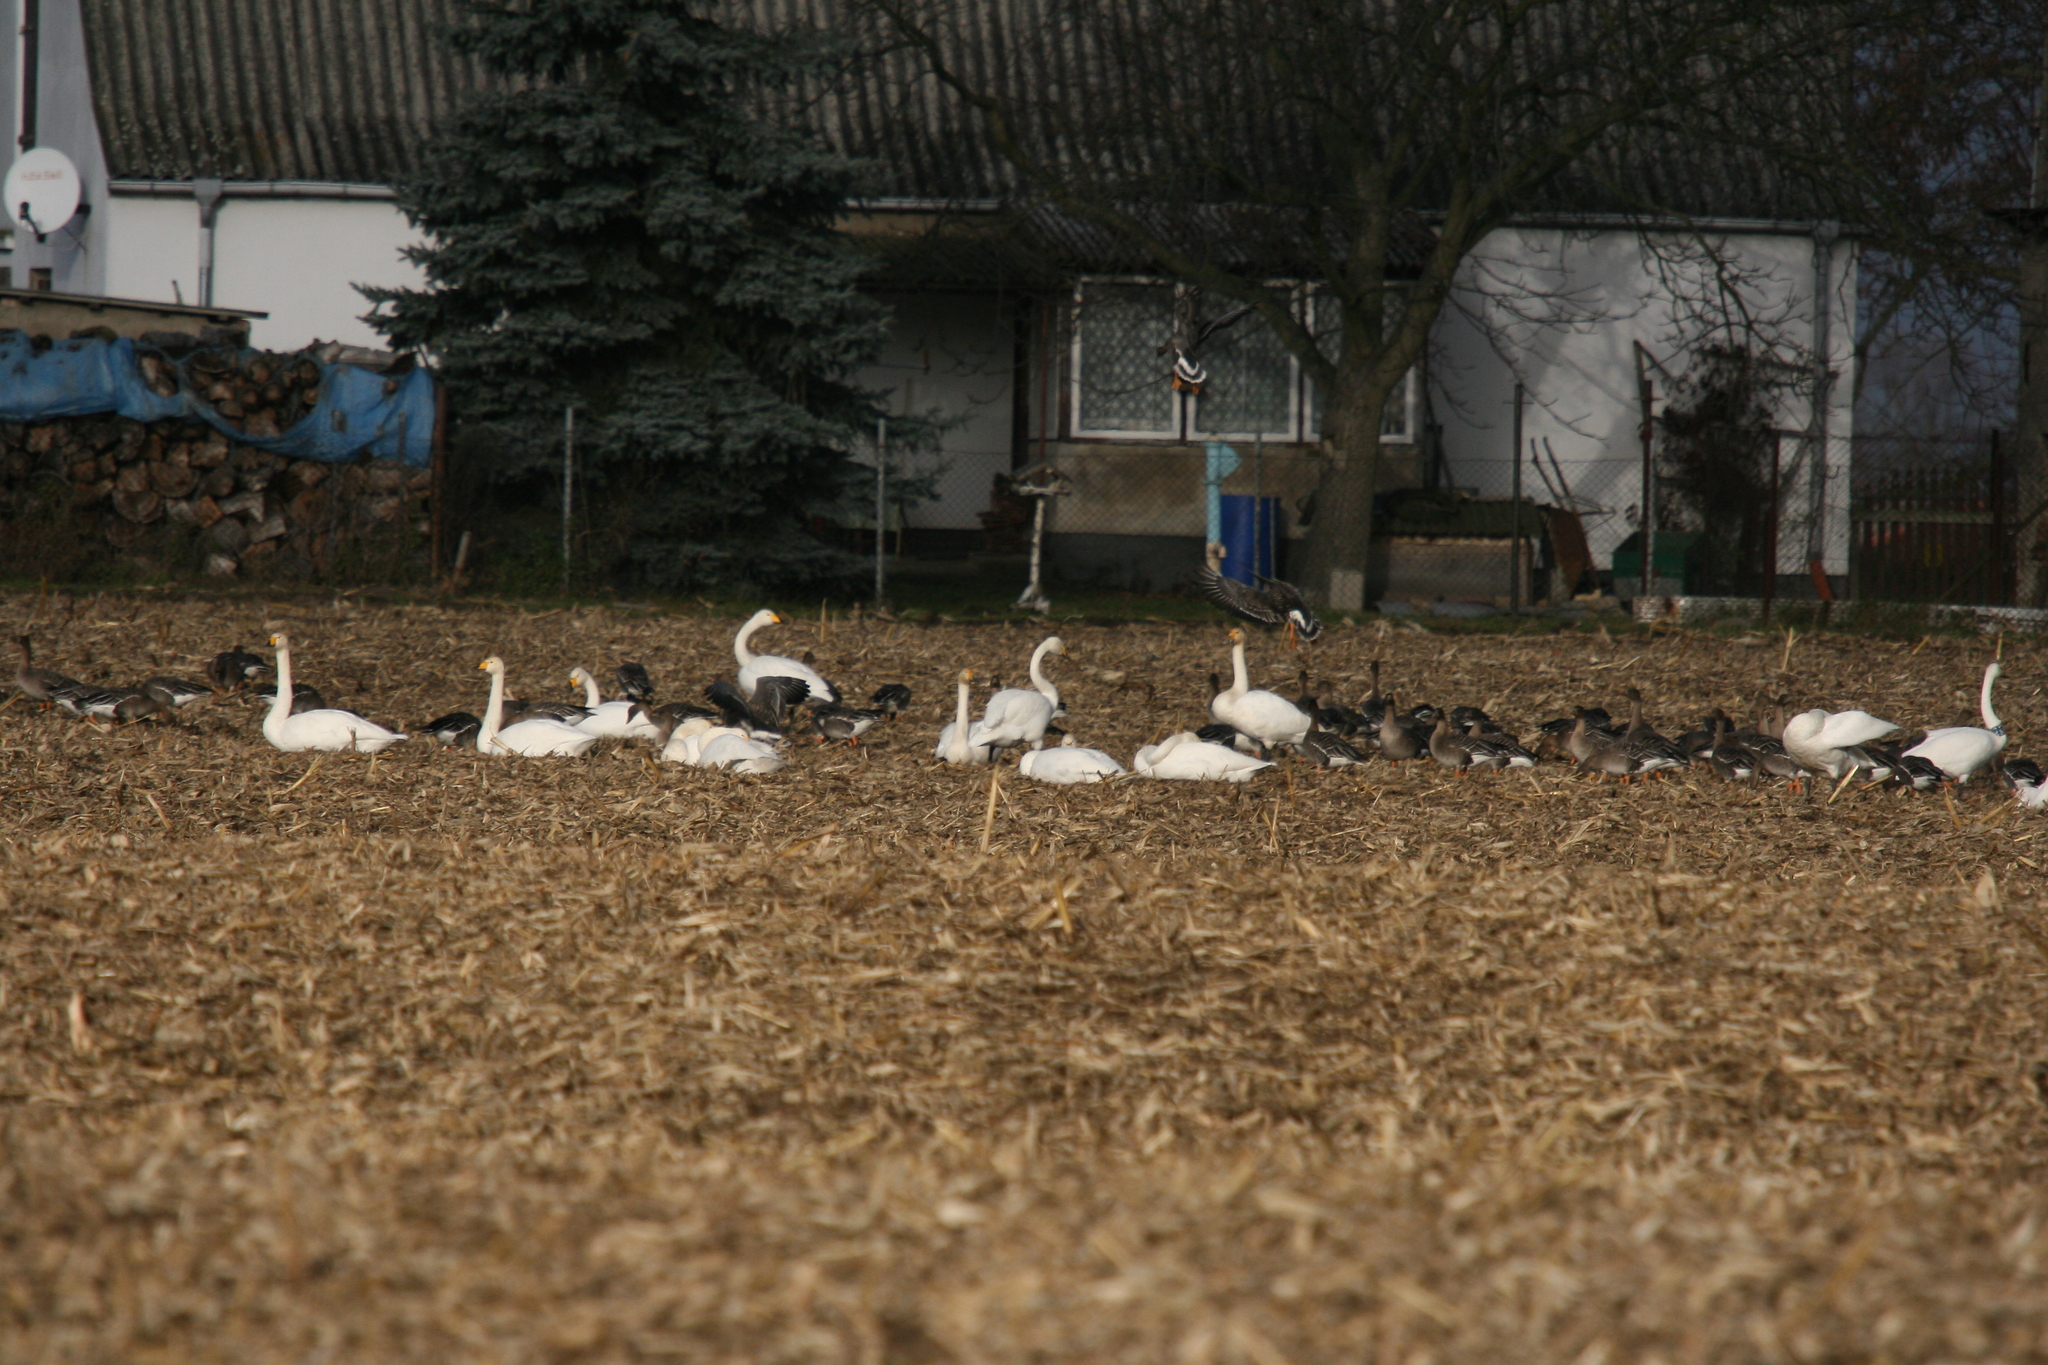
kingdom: Animalia
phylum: Chordata
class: Aves
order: Anseriformes
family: Anatidae
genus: Cygnus
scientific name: Cygnus cygnus
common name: Whooper swan
